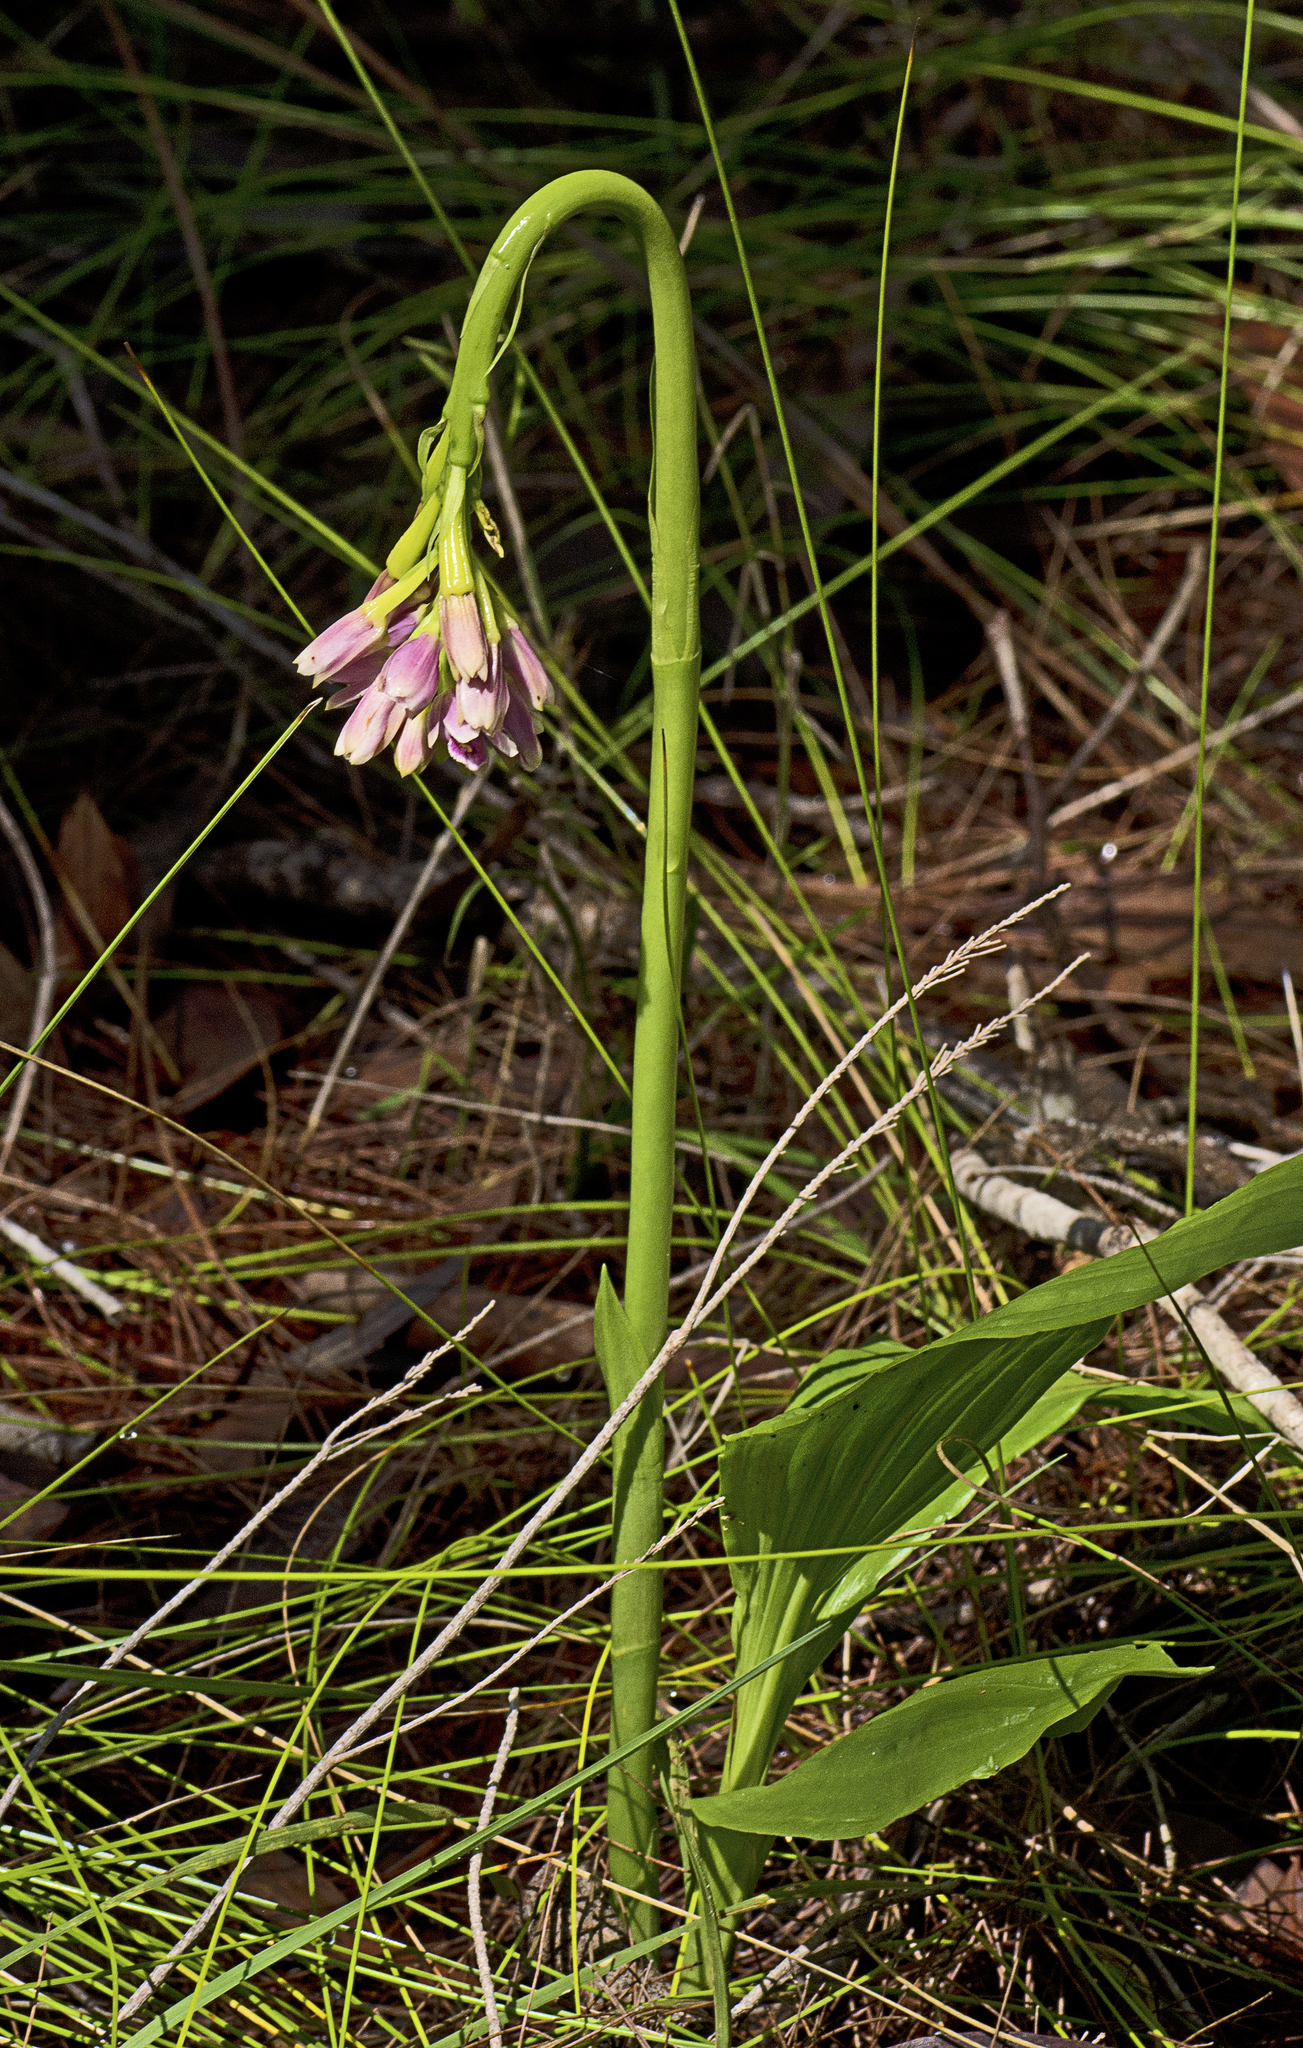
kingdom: Plantae
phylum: Tracheophyta
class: Liliopsida
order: Asparagales
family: Orchidaceae
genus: Eulophia
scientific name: Eulophia cernua
